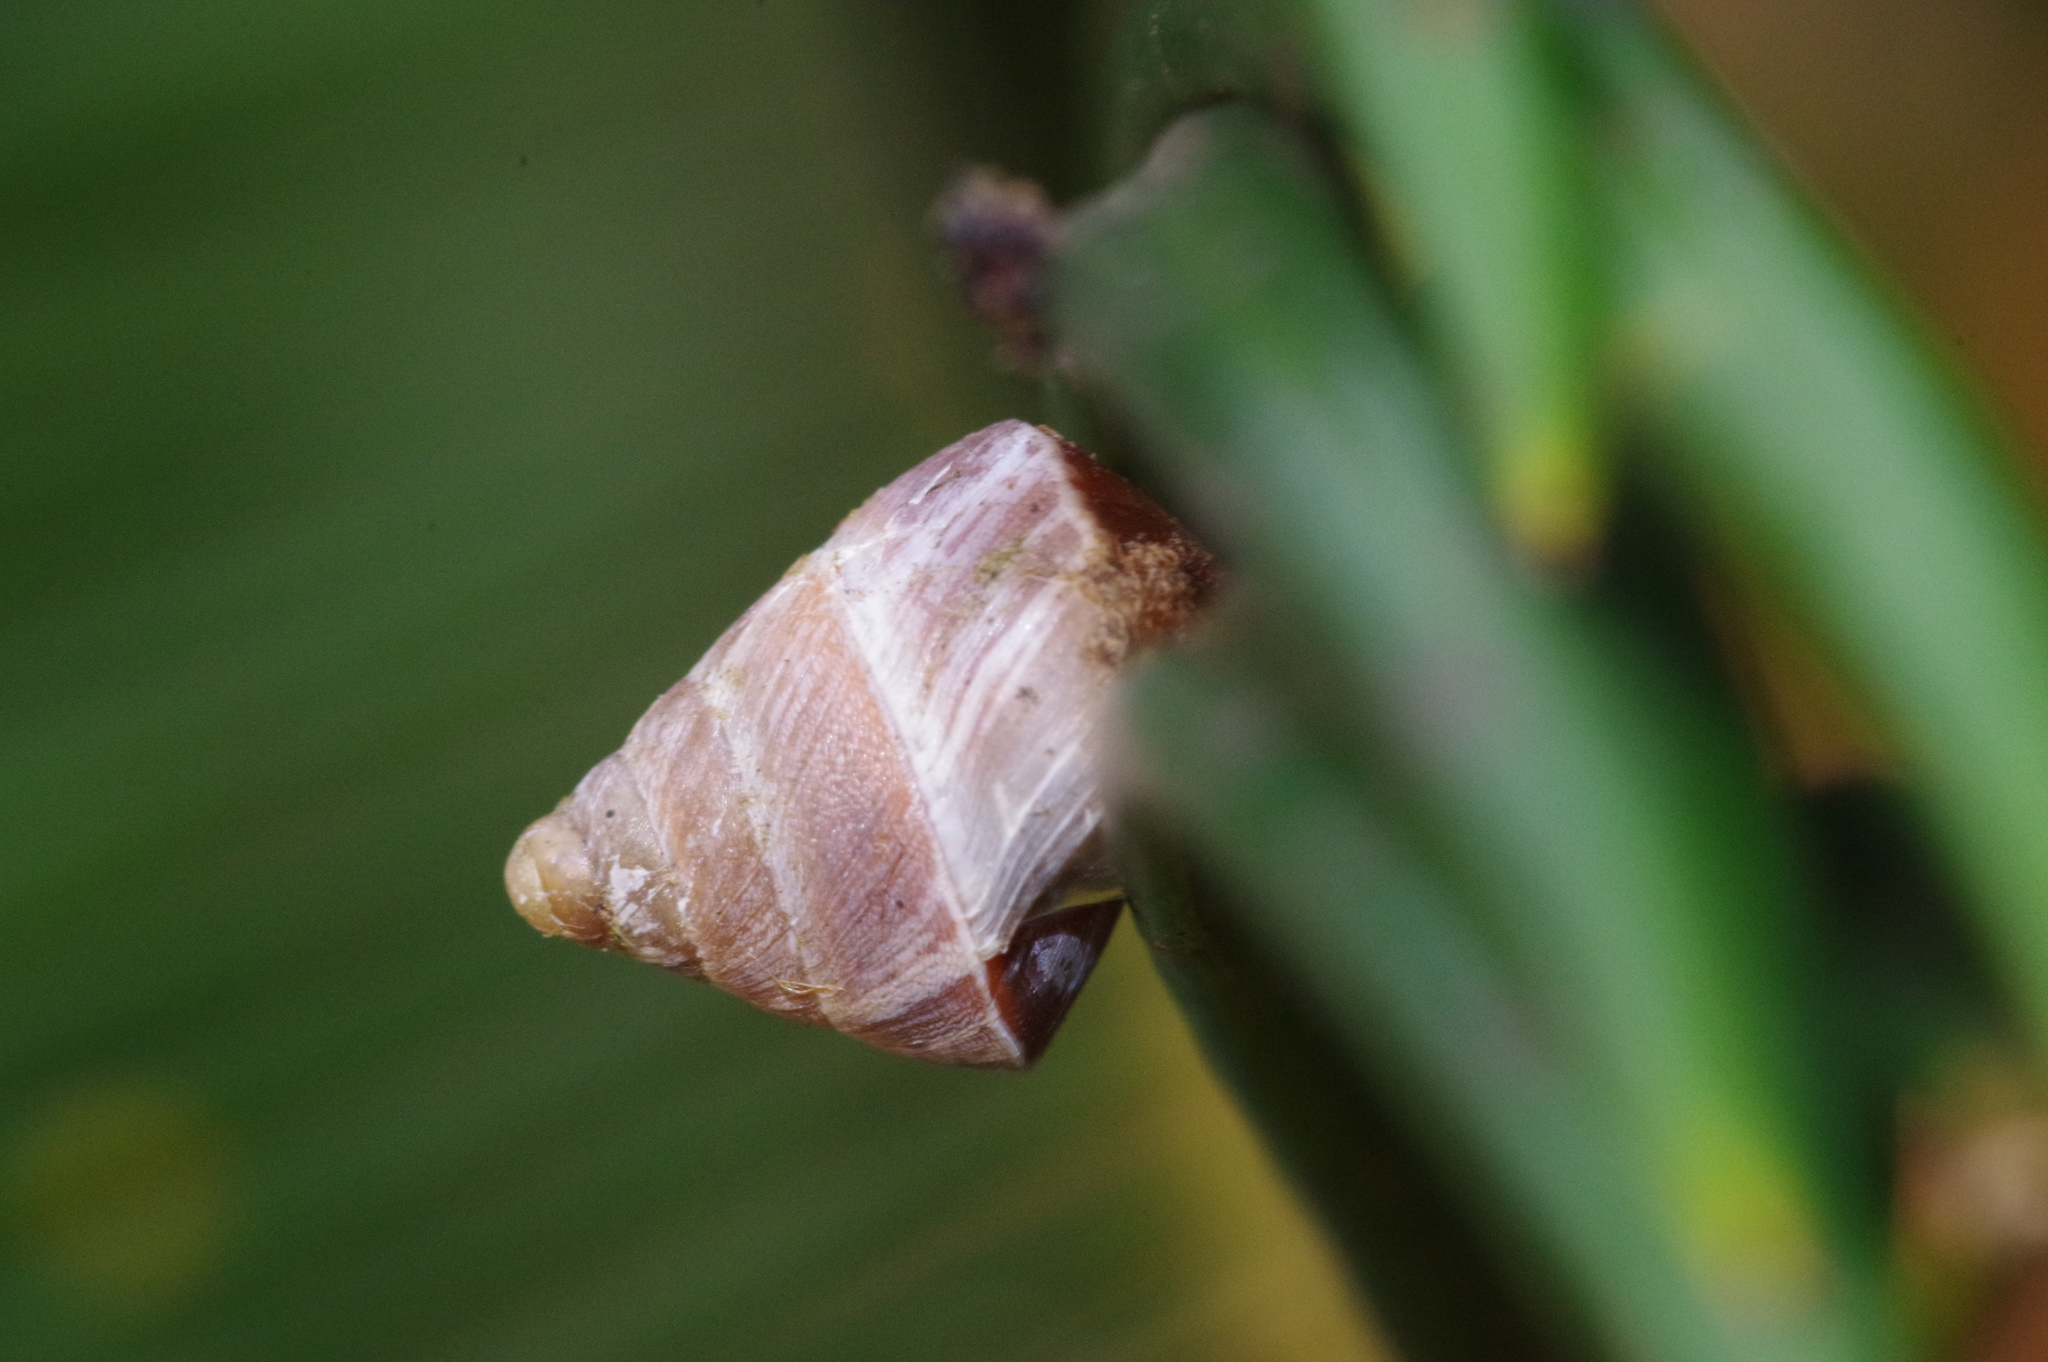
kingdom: Animalia
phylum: Mollusca
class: Gastropoda
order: Stylommatophora
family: Enidae
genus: Luchuena
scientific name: Luchuena reticulata
